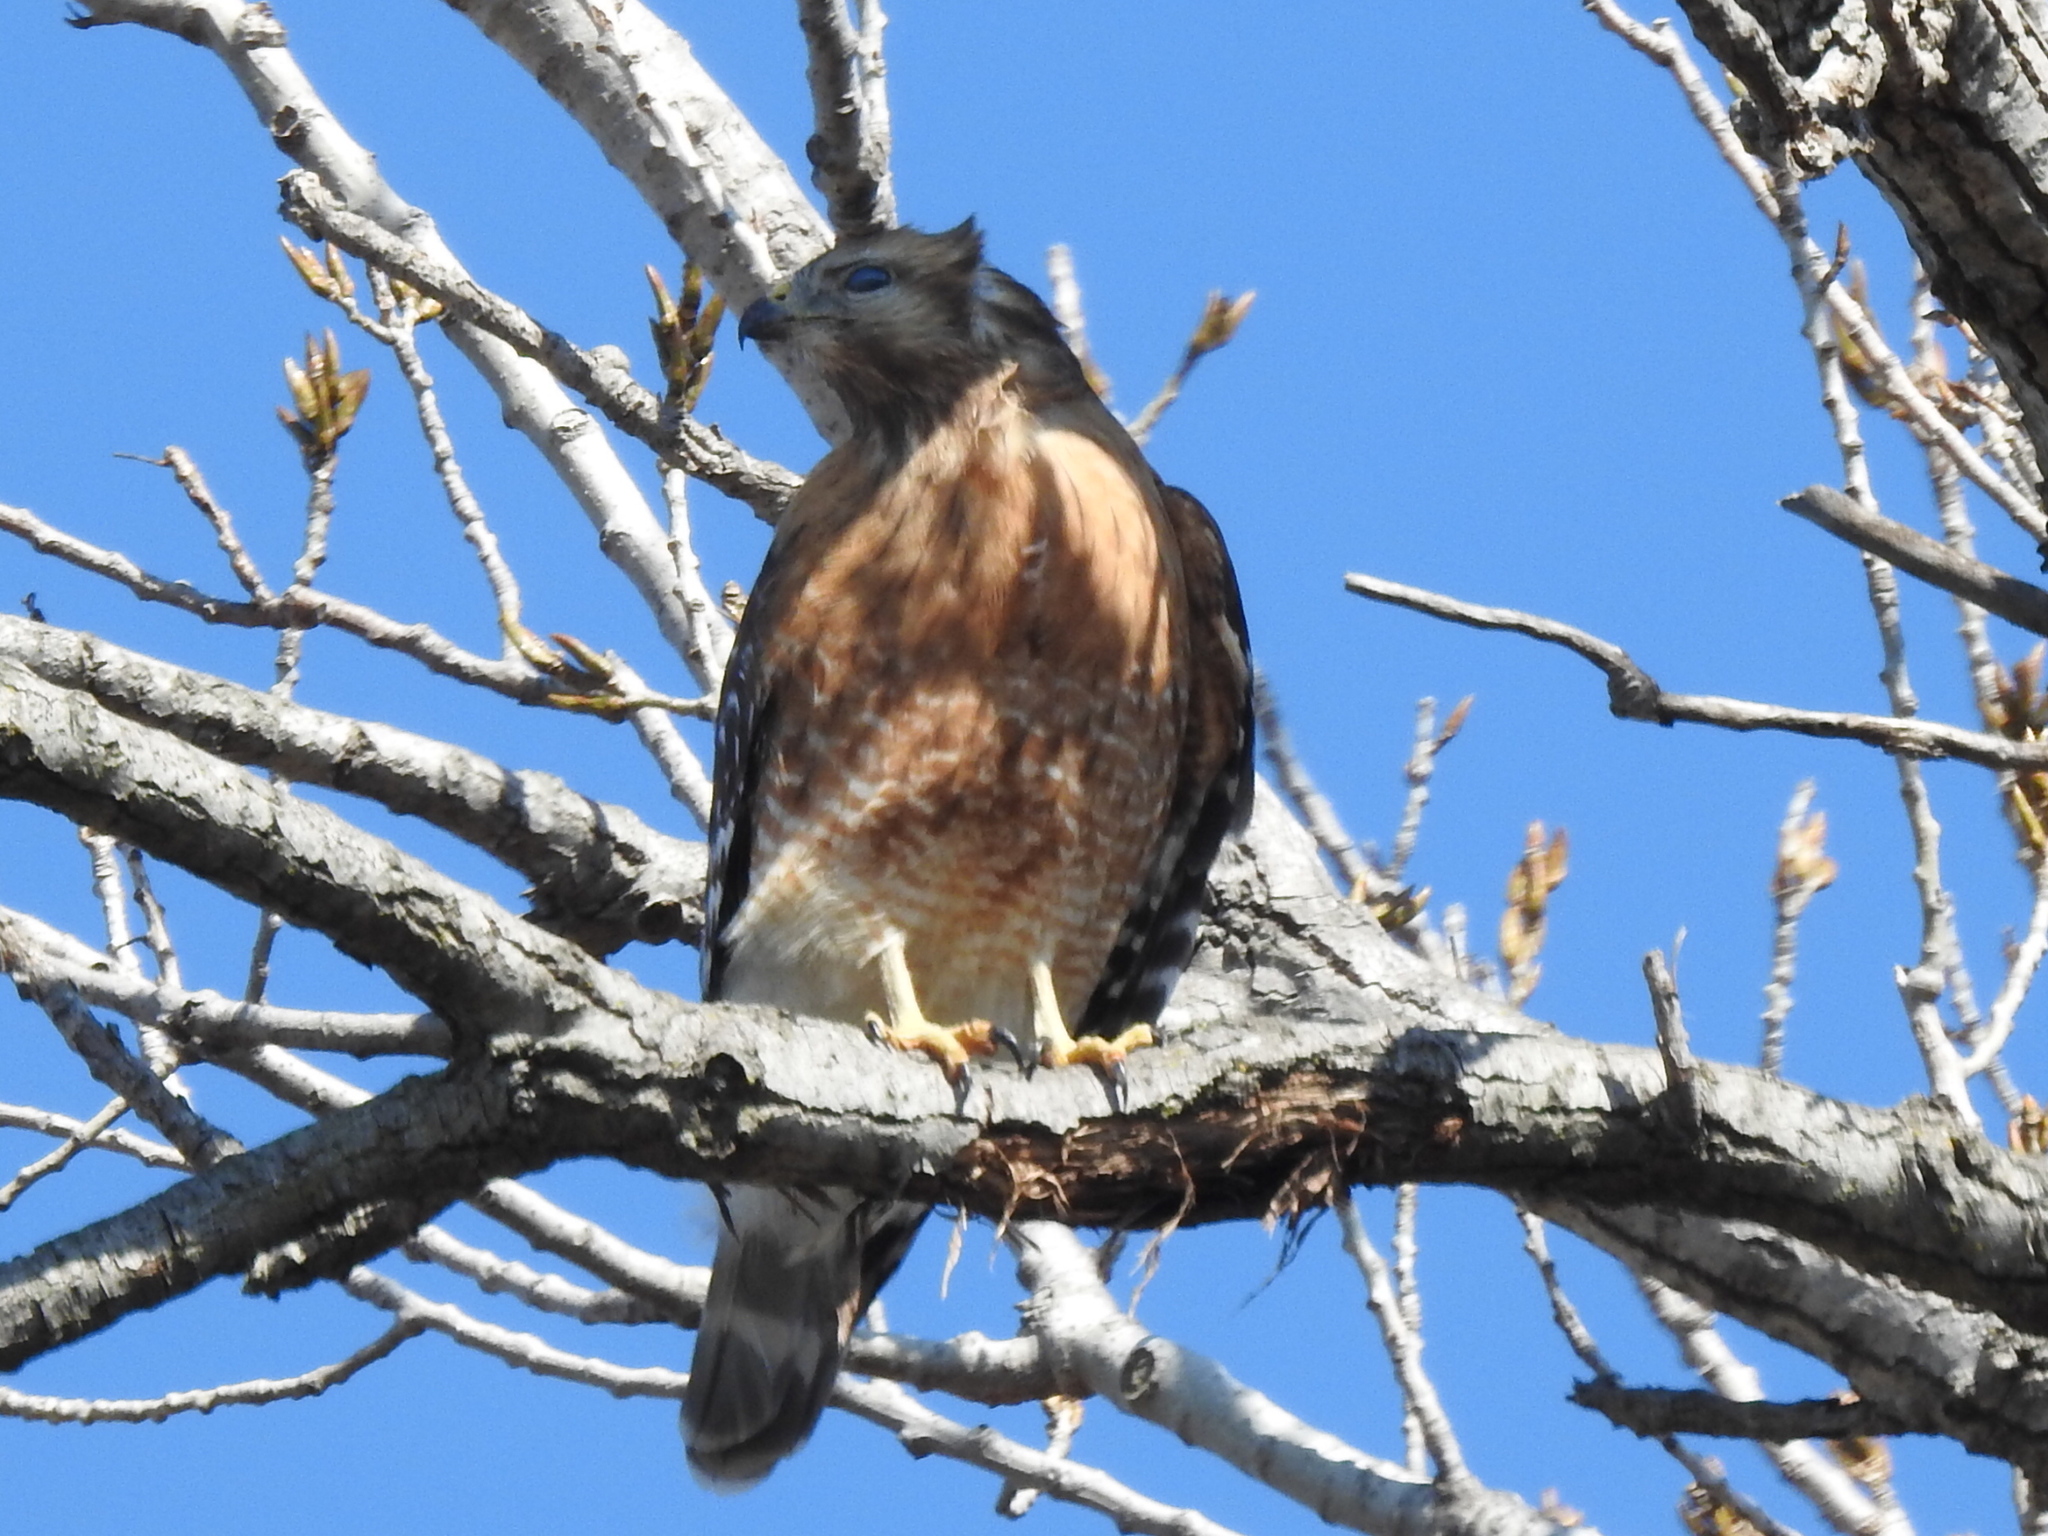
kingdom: Animalia
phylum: Chordata
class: Aves
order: Accipitriformes
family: Accipitridae
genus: Buteo
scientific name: Buteo lineatus
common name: Red-shouldered hawk
